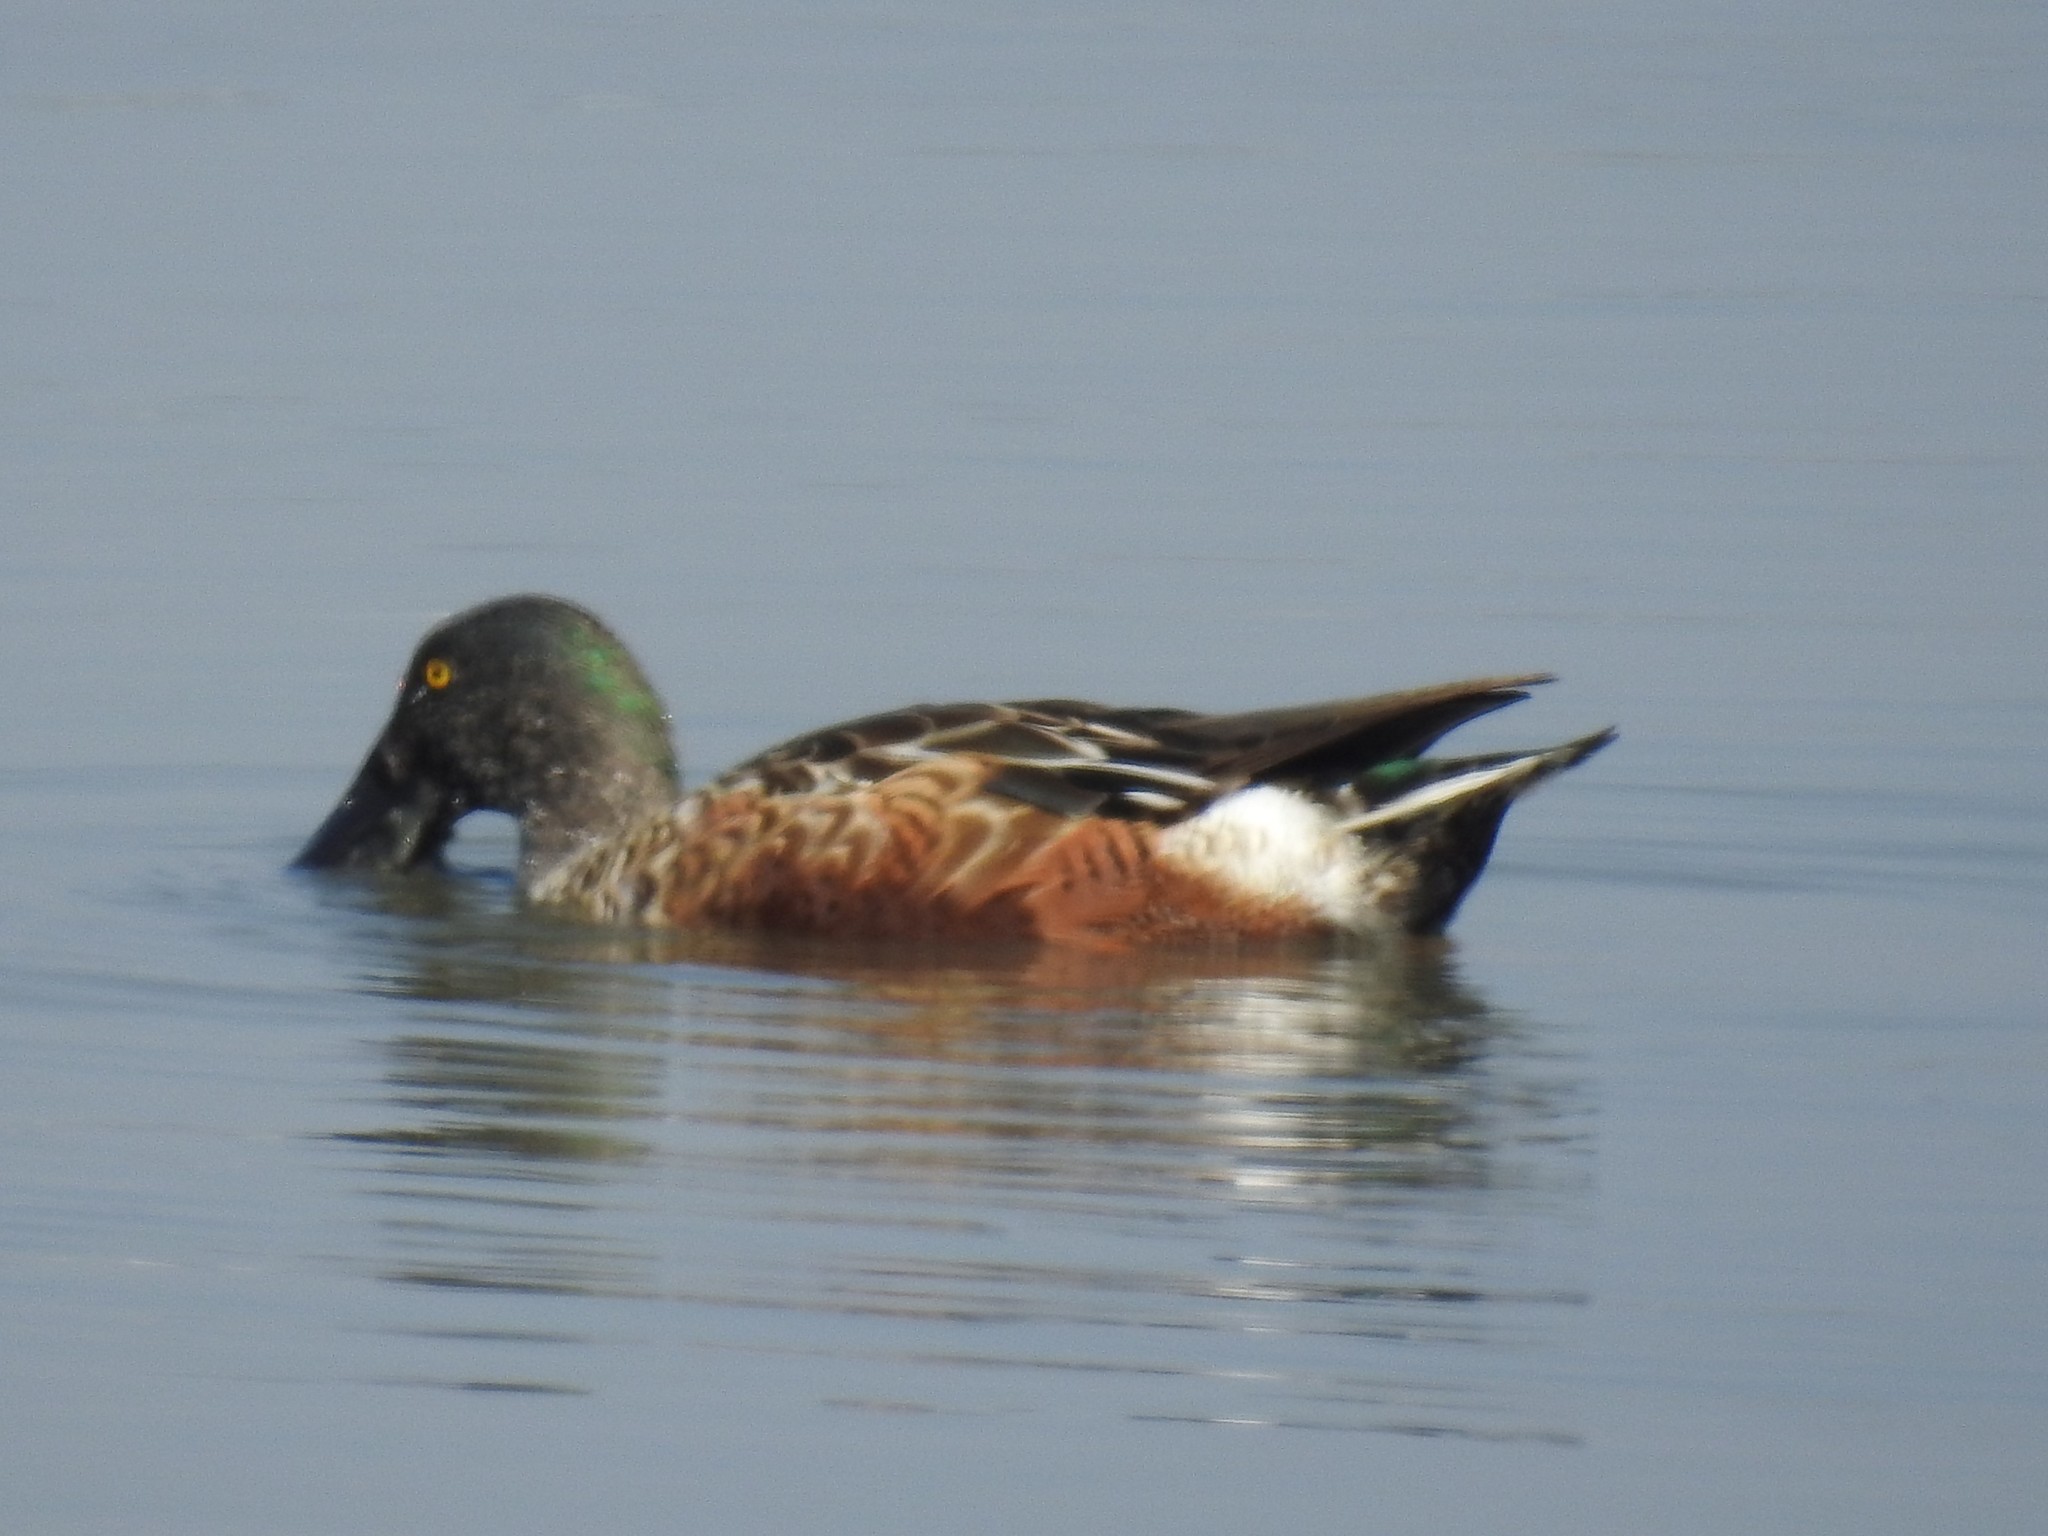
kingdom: Animalia
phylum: Chordata
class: Aves
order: Anseriformes
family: Anatidae
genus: Spatula
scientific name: Spatula clypeata
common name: Northern shoveler
